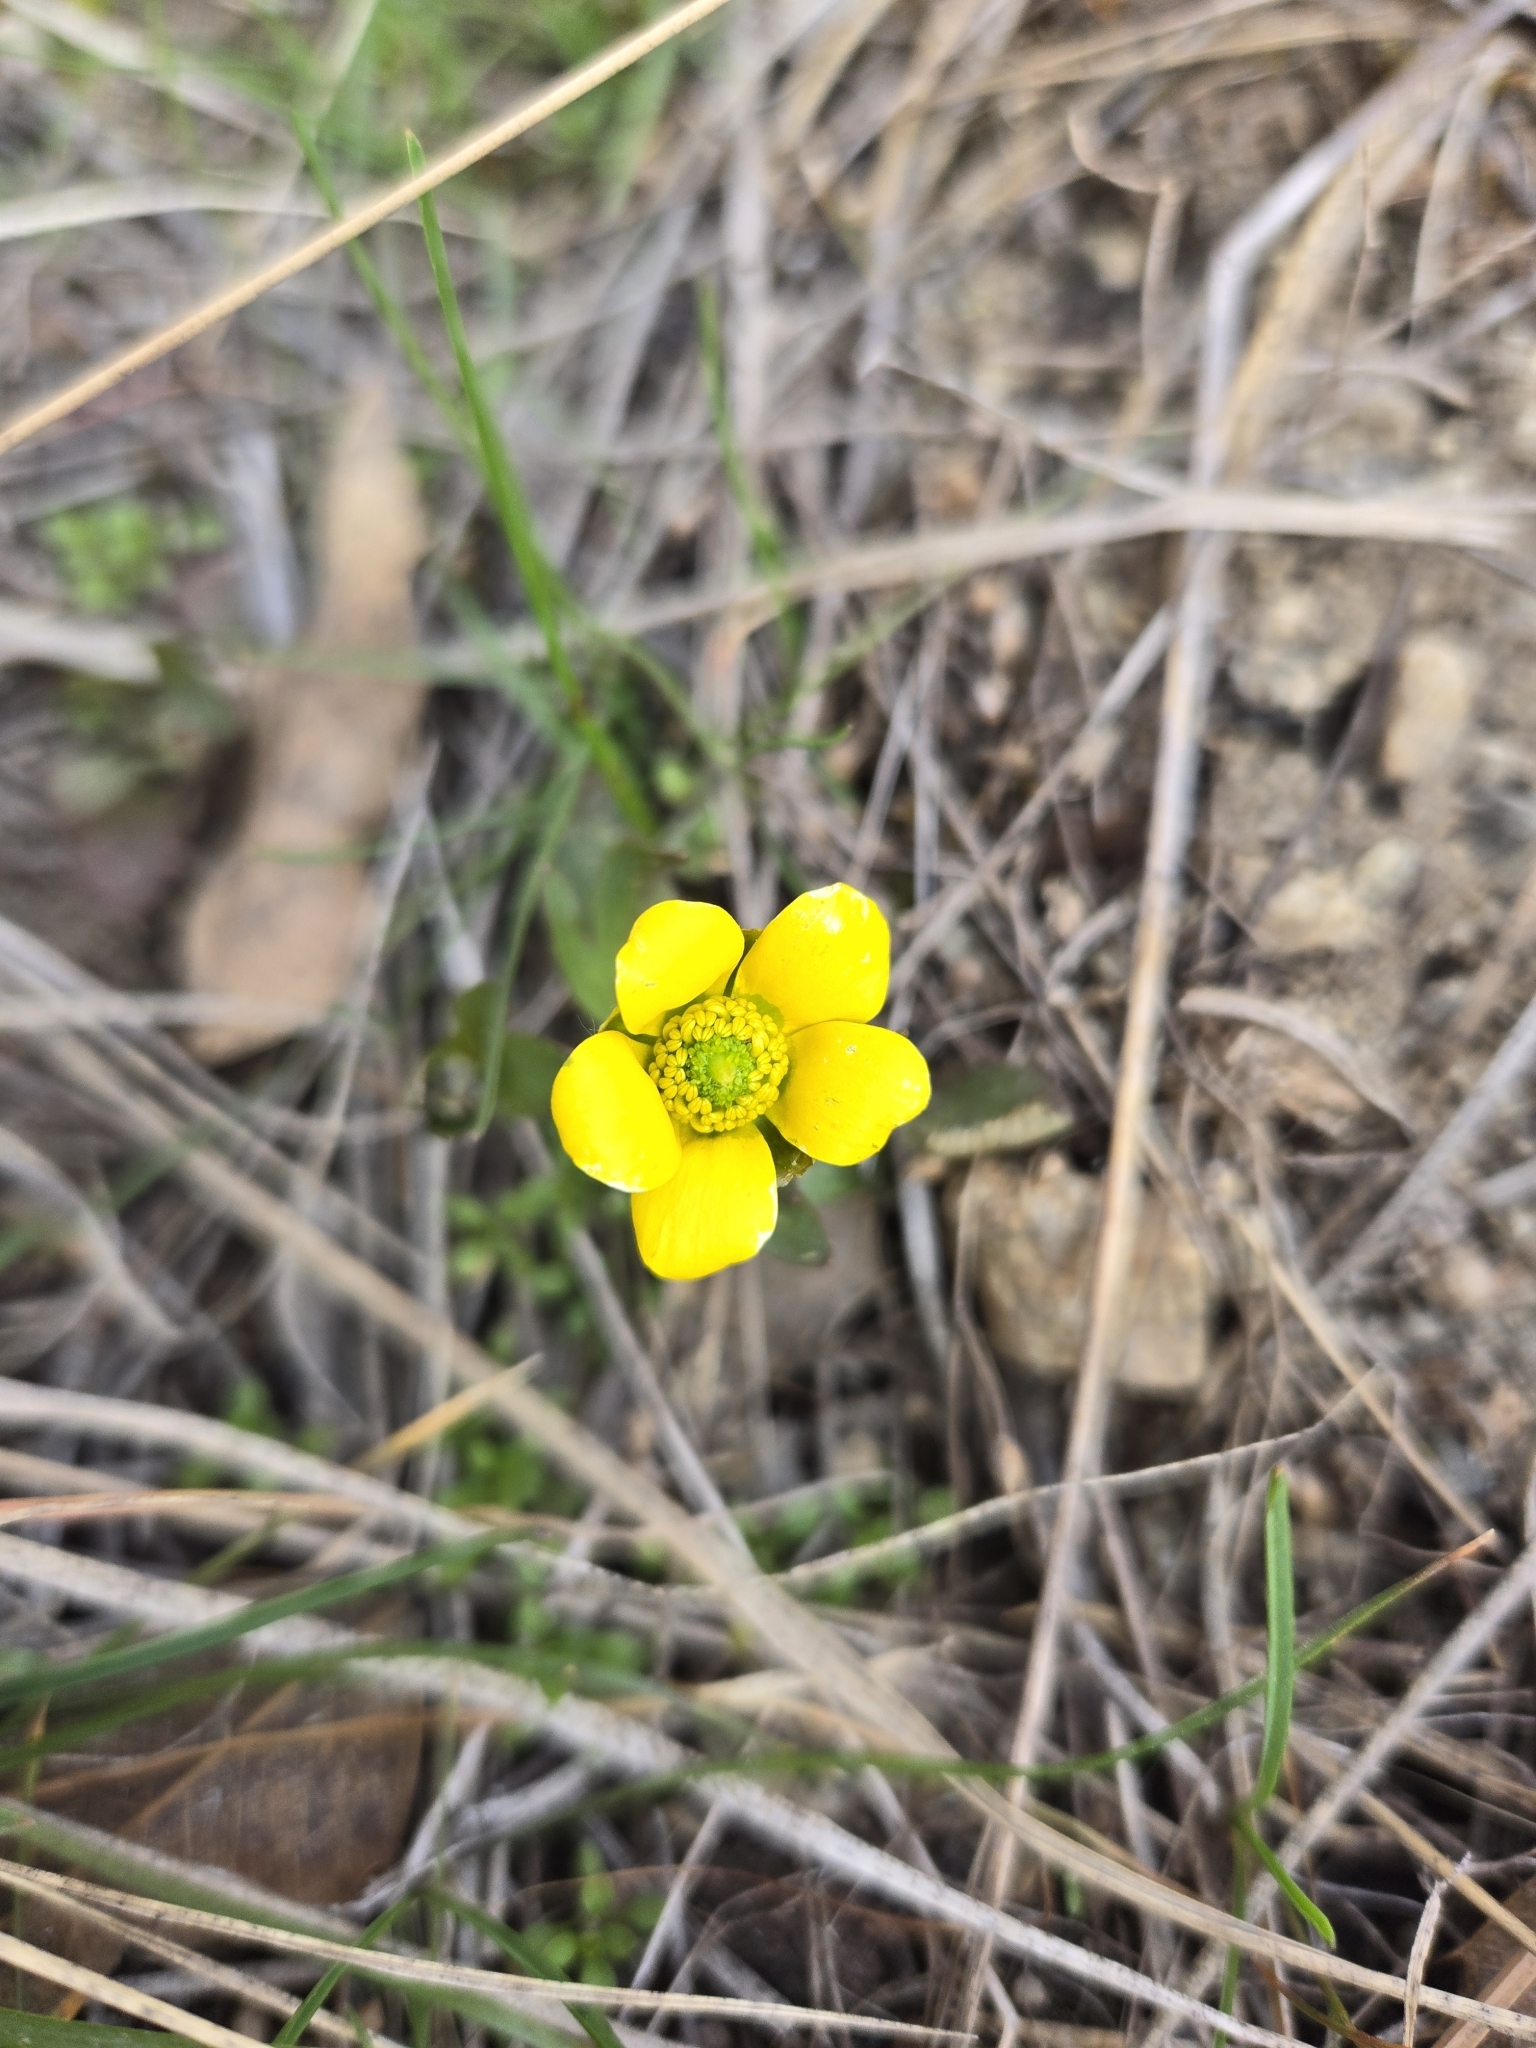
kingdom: Plantae
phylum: Tracheophyta
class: Magnoliopsida
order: Ranunculales
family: Ranunculaceae
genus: Ranunculus
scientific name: Ranunculus glaberrimus
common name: Sagebrush buttercup
